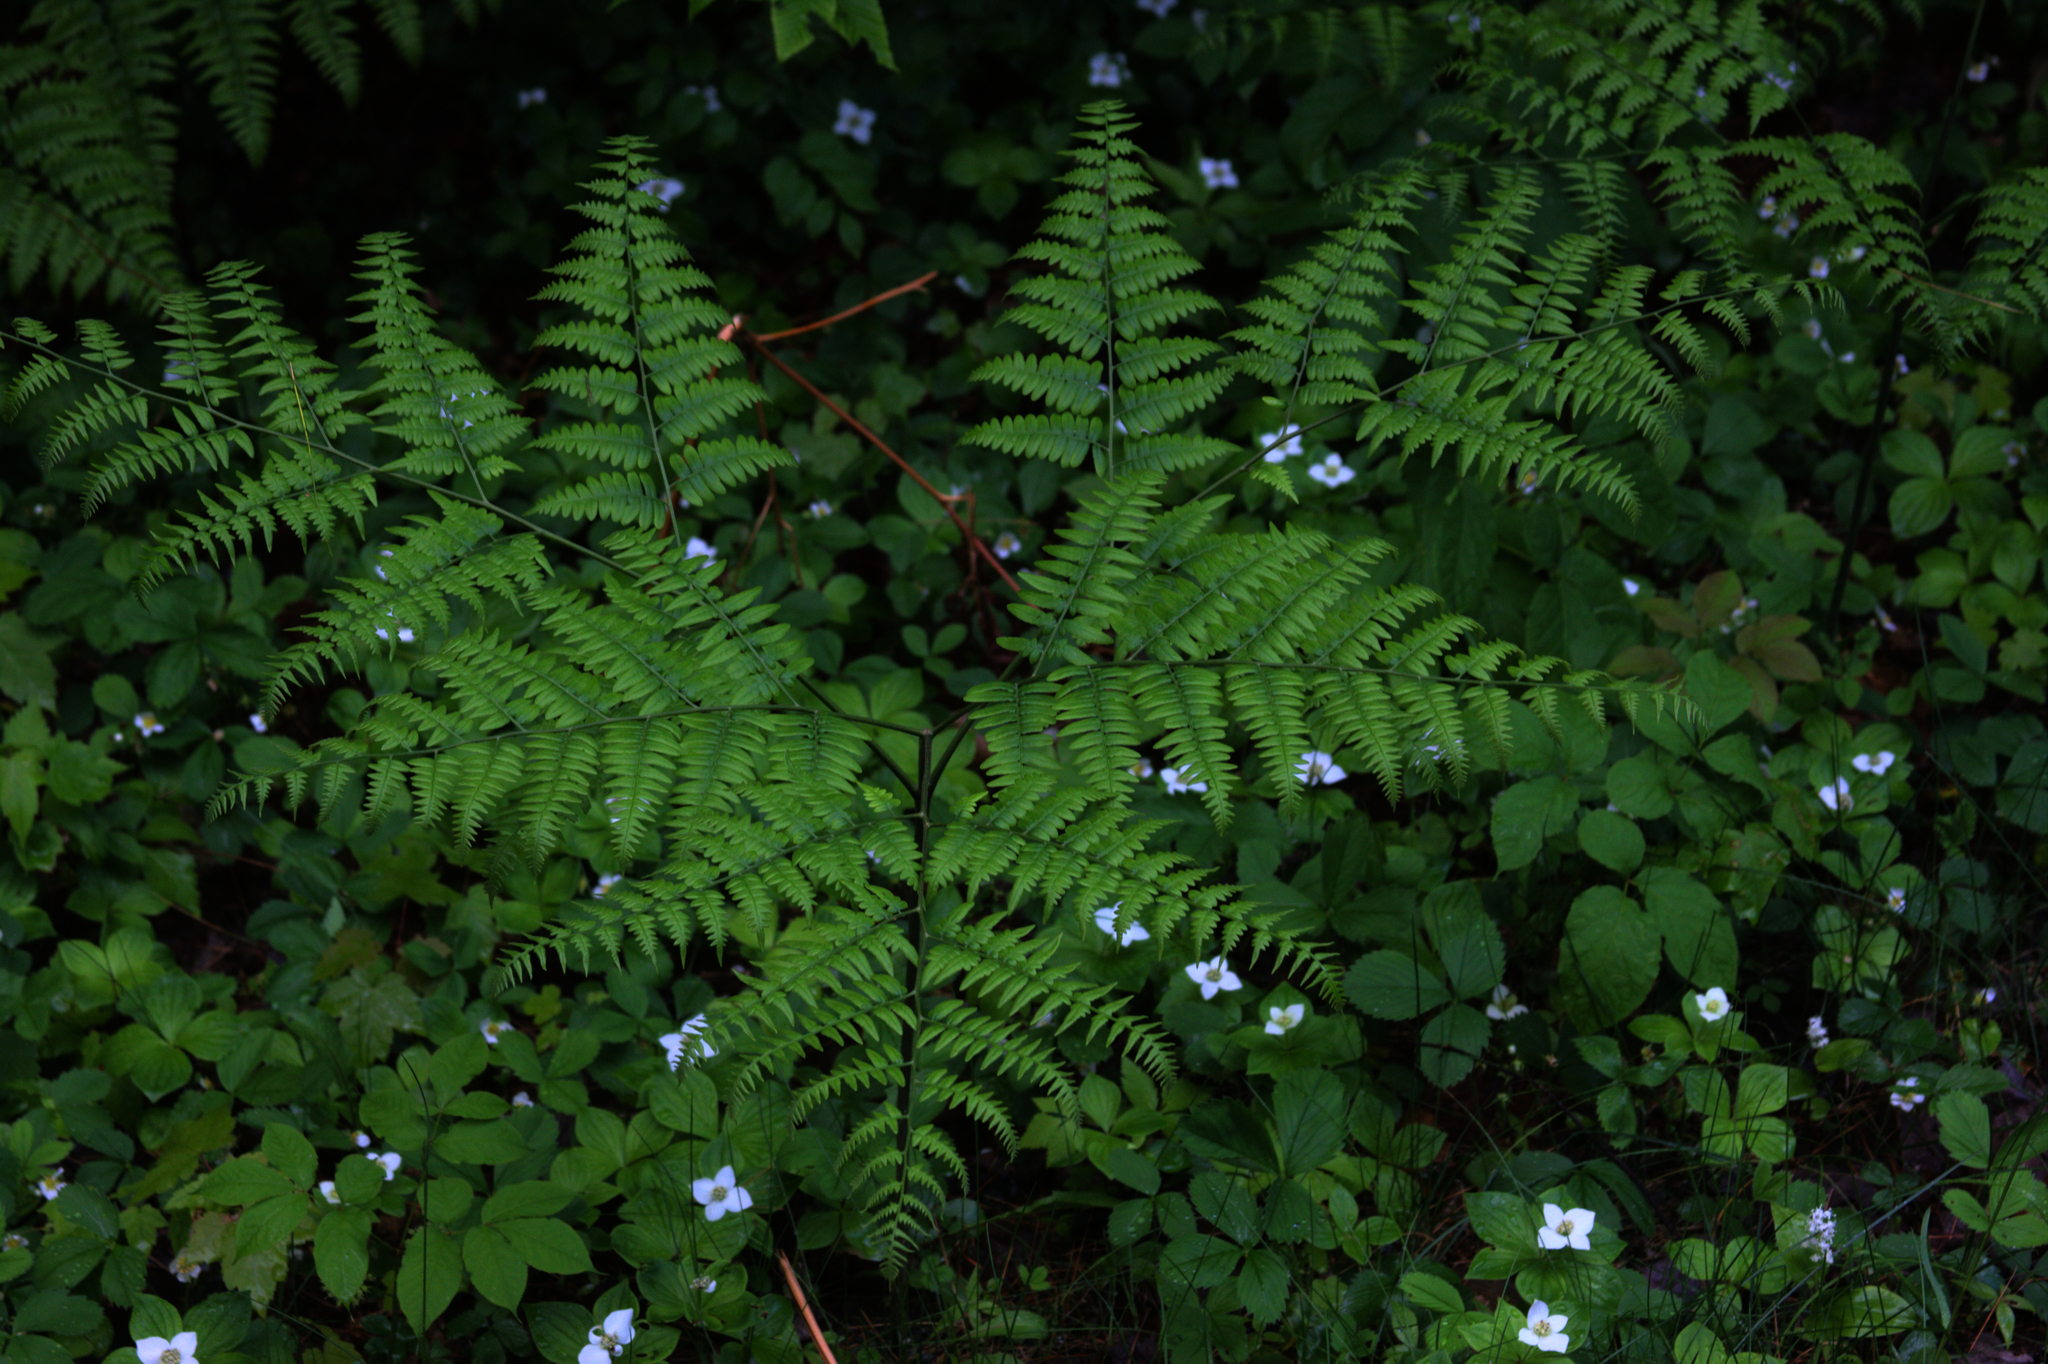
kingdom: Plantae
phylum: Tracheophyta
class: Polypodiopsida
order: Polypodiales
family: Dennstaedtiaceae
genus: Pteridium
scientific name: Pteridium aquilinum
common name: Bracken
